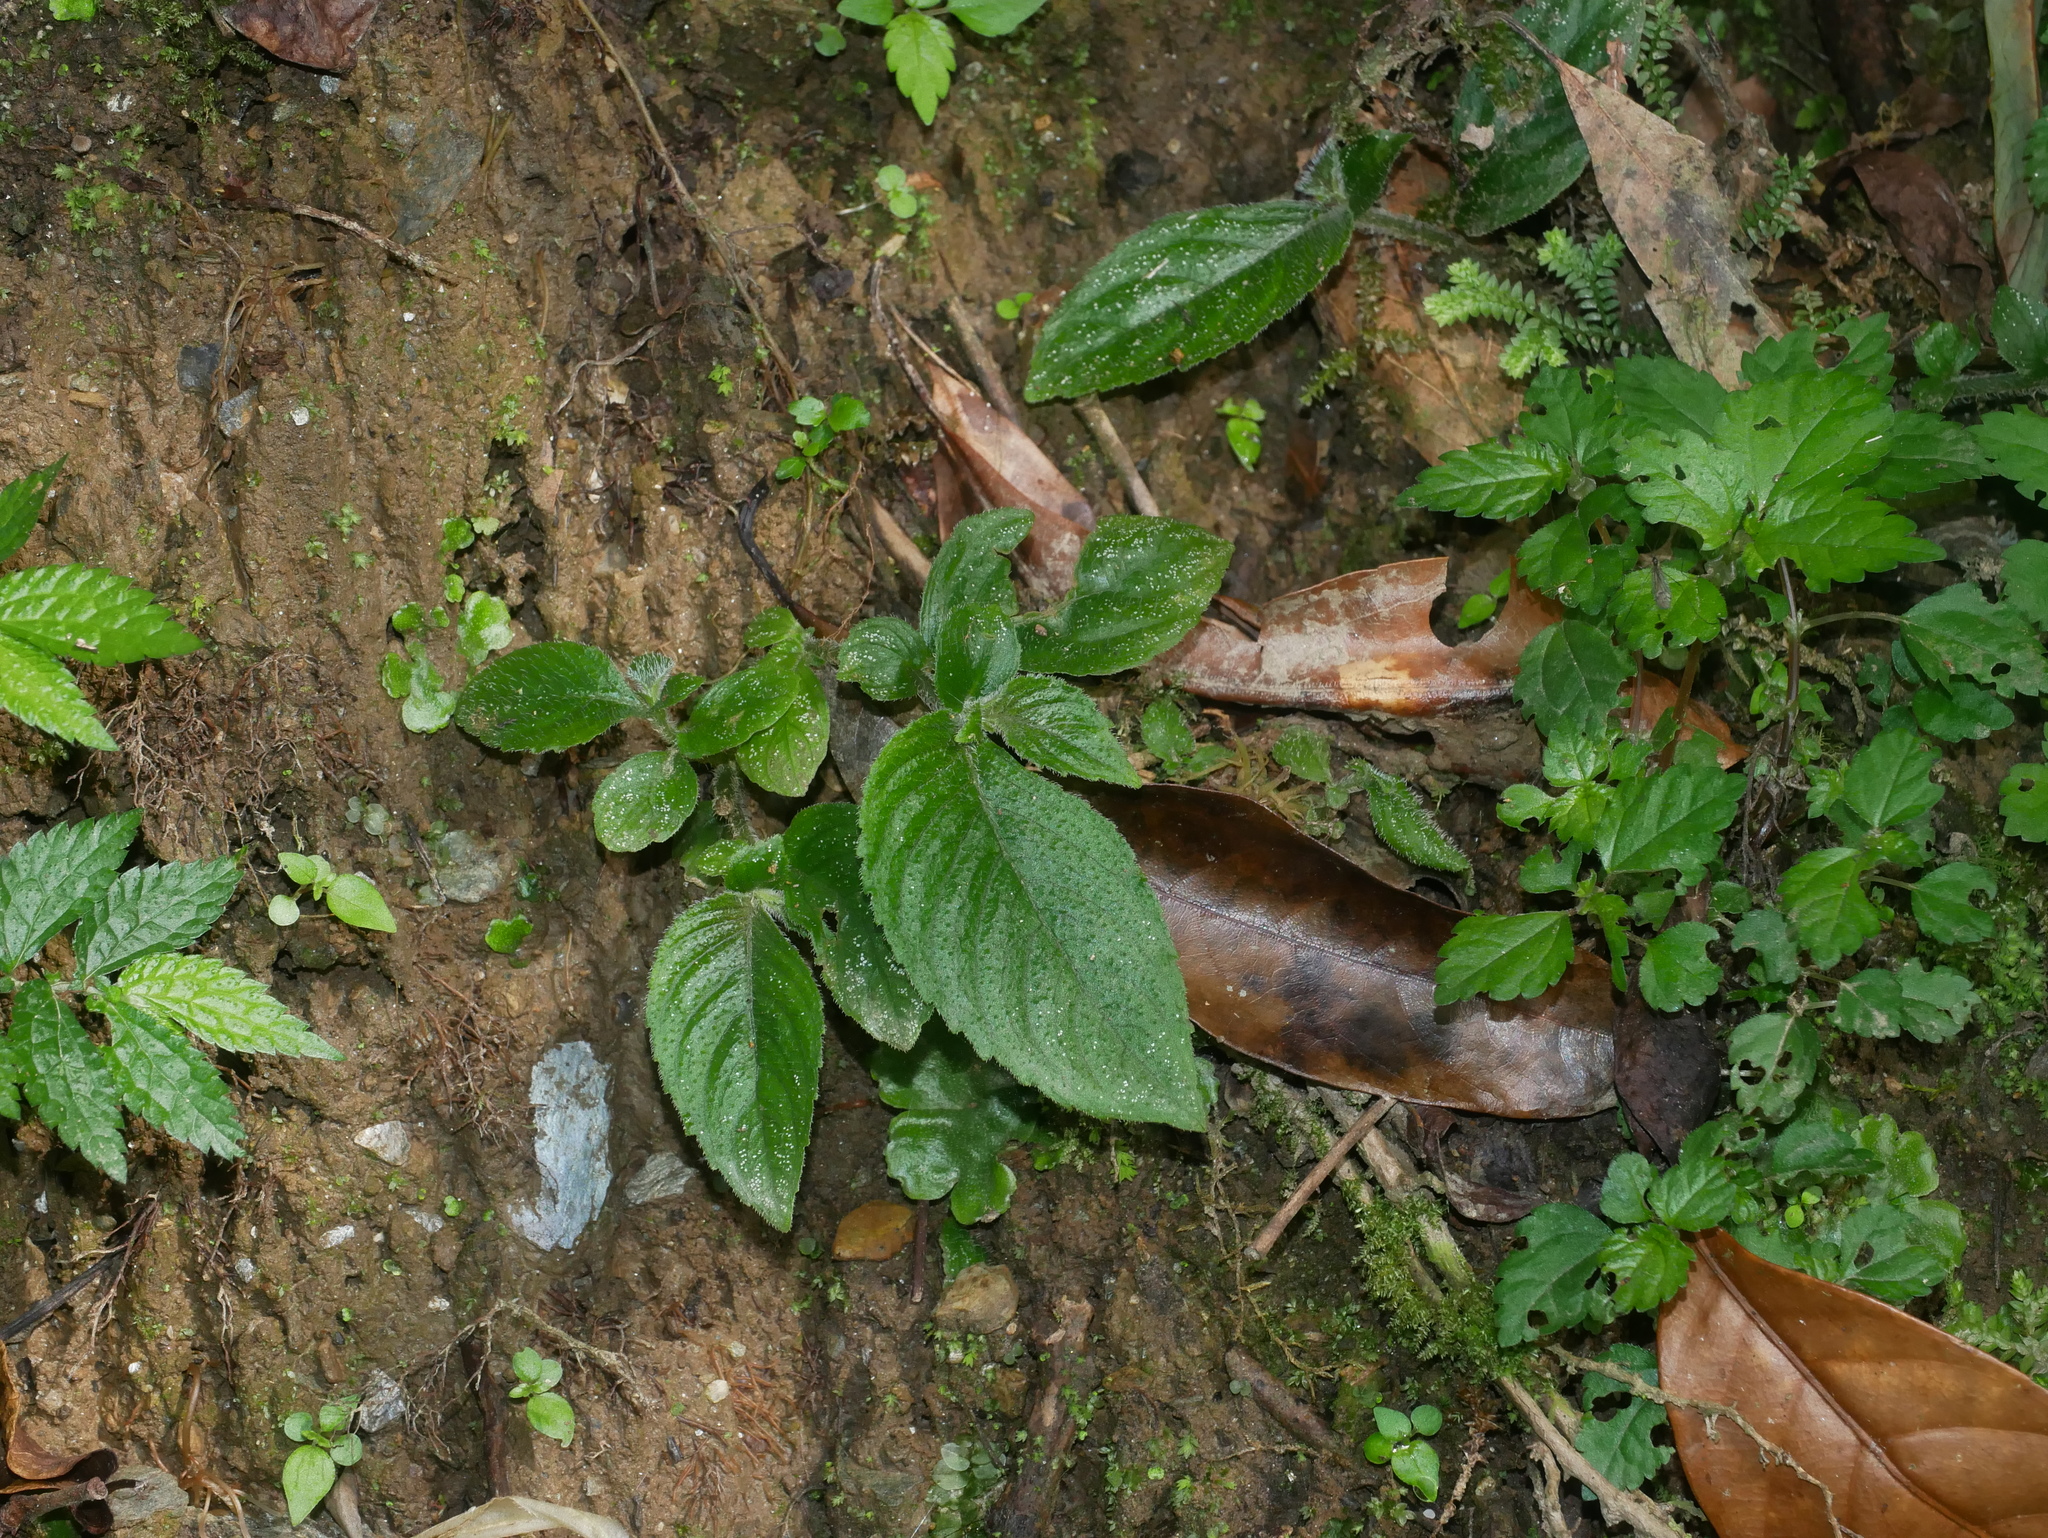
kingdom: Plantae
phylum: Tracheophyta
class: Magnoliopsida
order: Lamiales
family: Gesneriaceae
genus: Whytockia
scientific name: Whytockia sasakii
